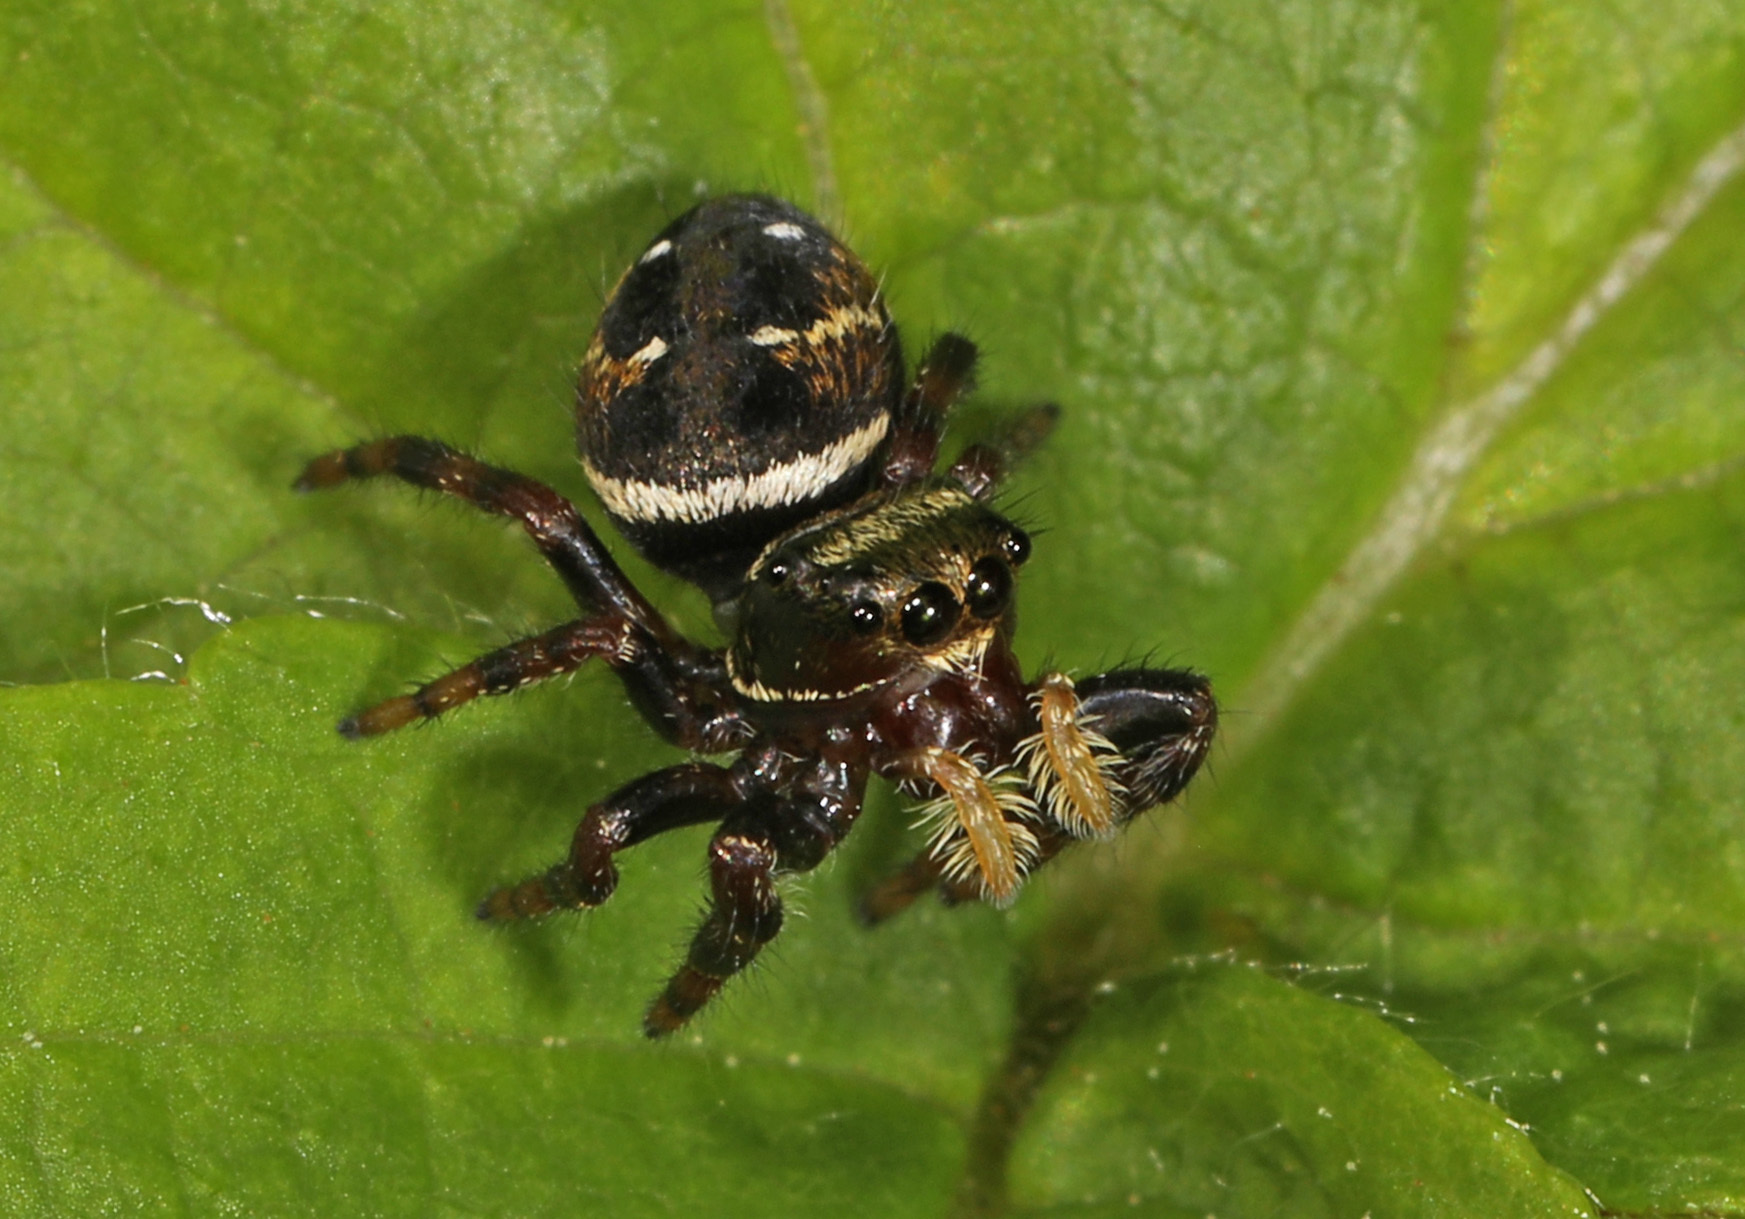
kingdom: Animalia
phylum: Arthropoda
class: Arachnida
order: Araneae
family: Salticidae
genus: Phidippus
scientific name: Phidippus clarus
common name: Brilliant jumping spider
